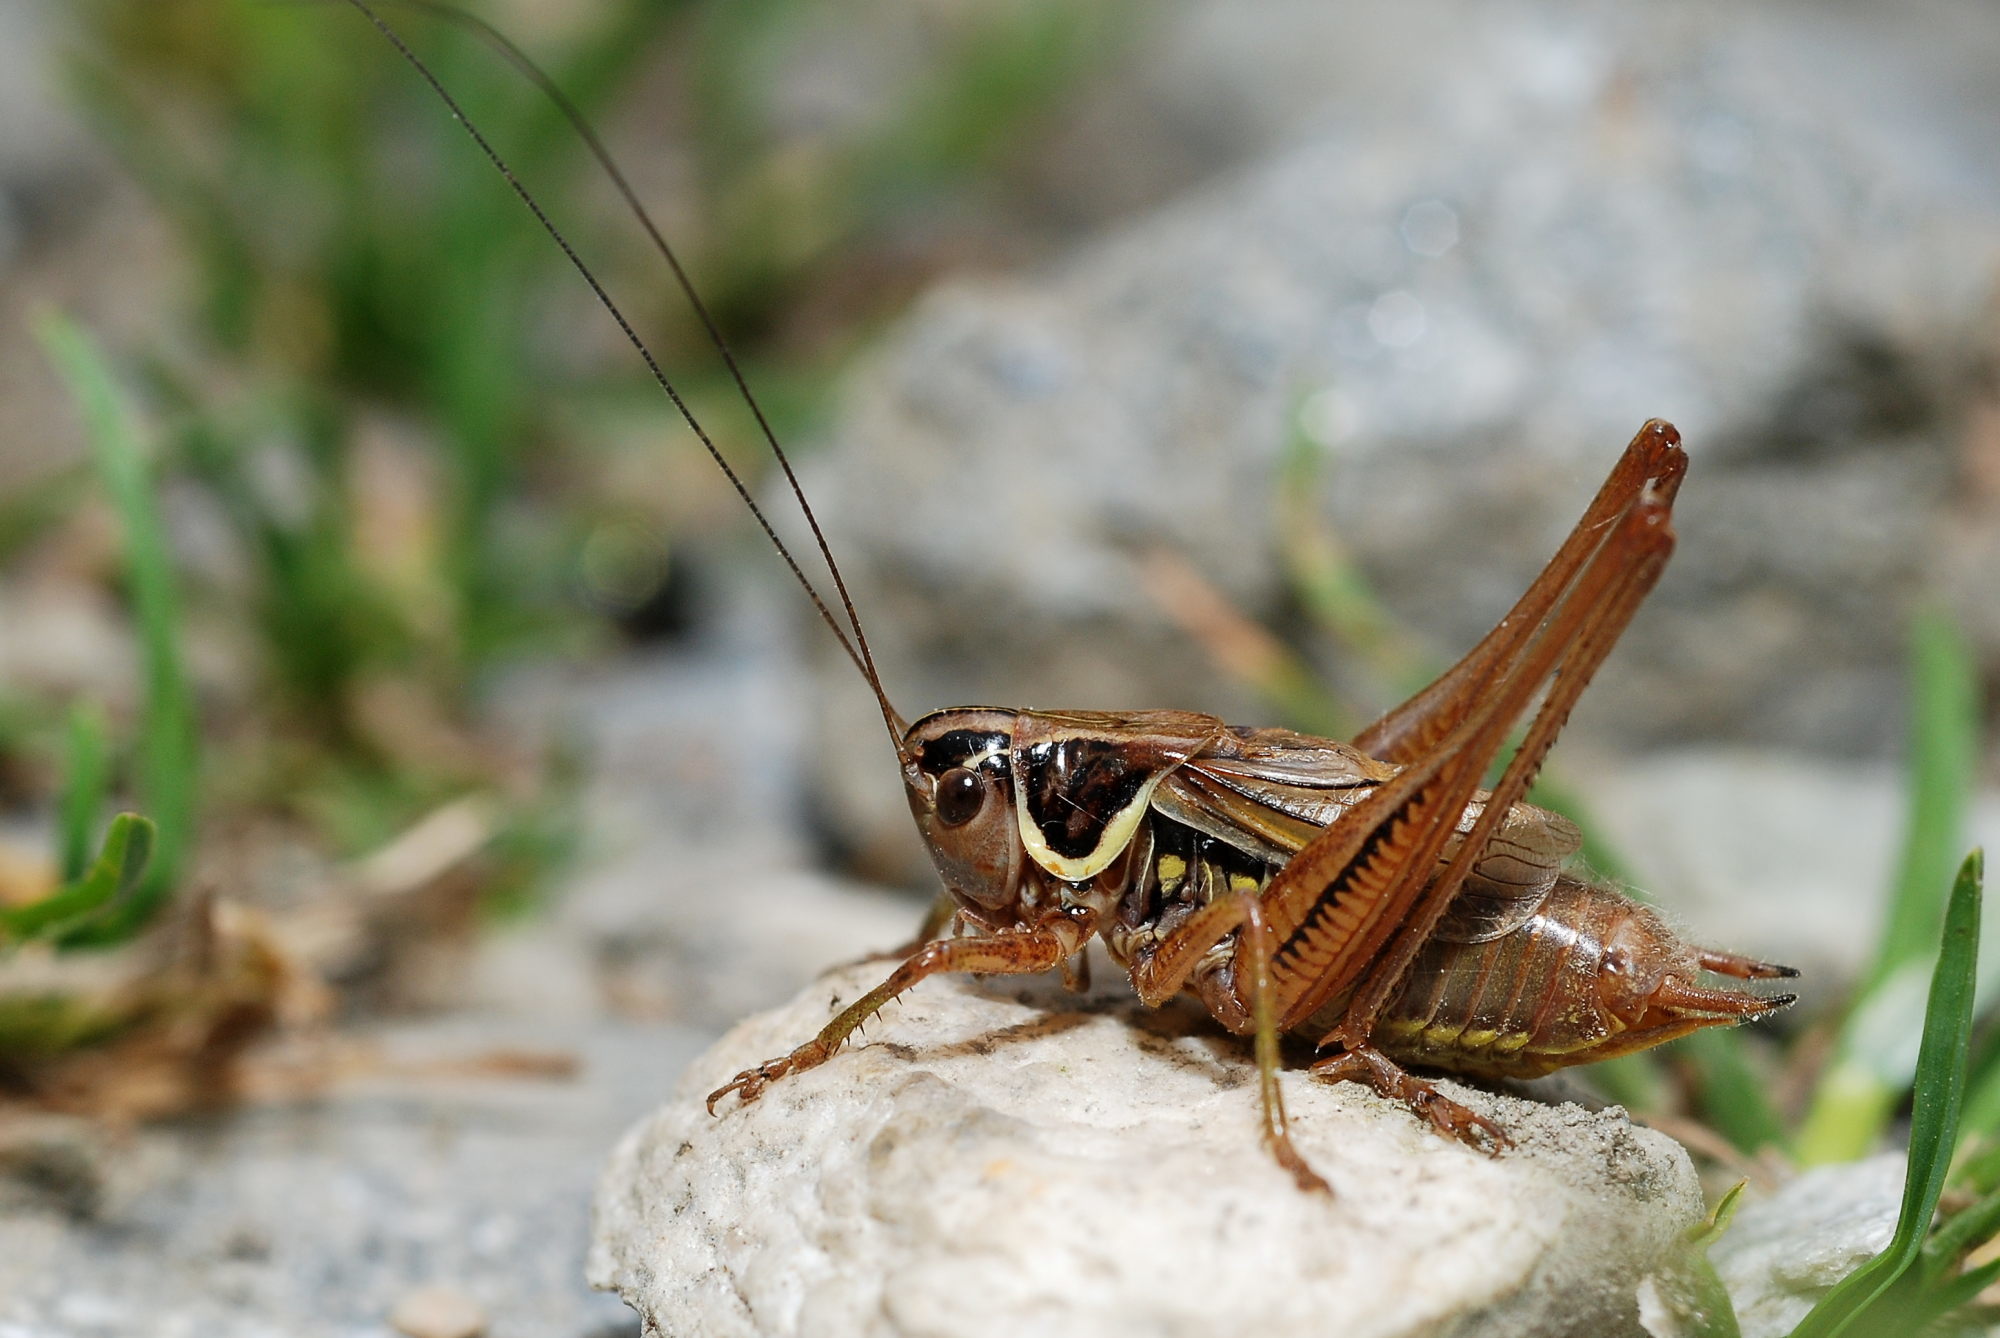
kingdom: Animalia
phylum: Arthropoda
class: Insecta
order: Orthoptera
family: Tettigoniidae
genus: Roeseliana
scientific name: Roeseliana roeselii
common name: Roesel's bush cricket
